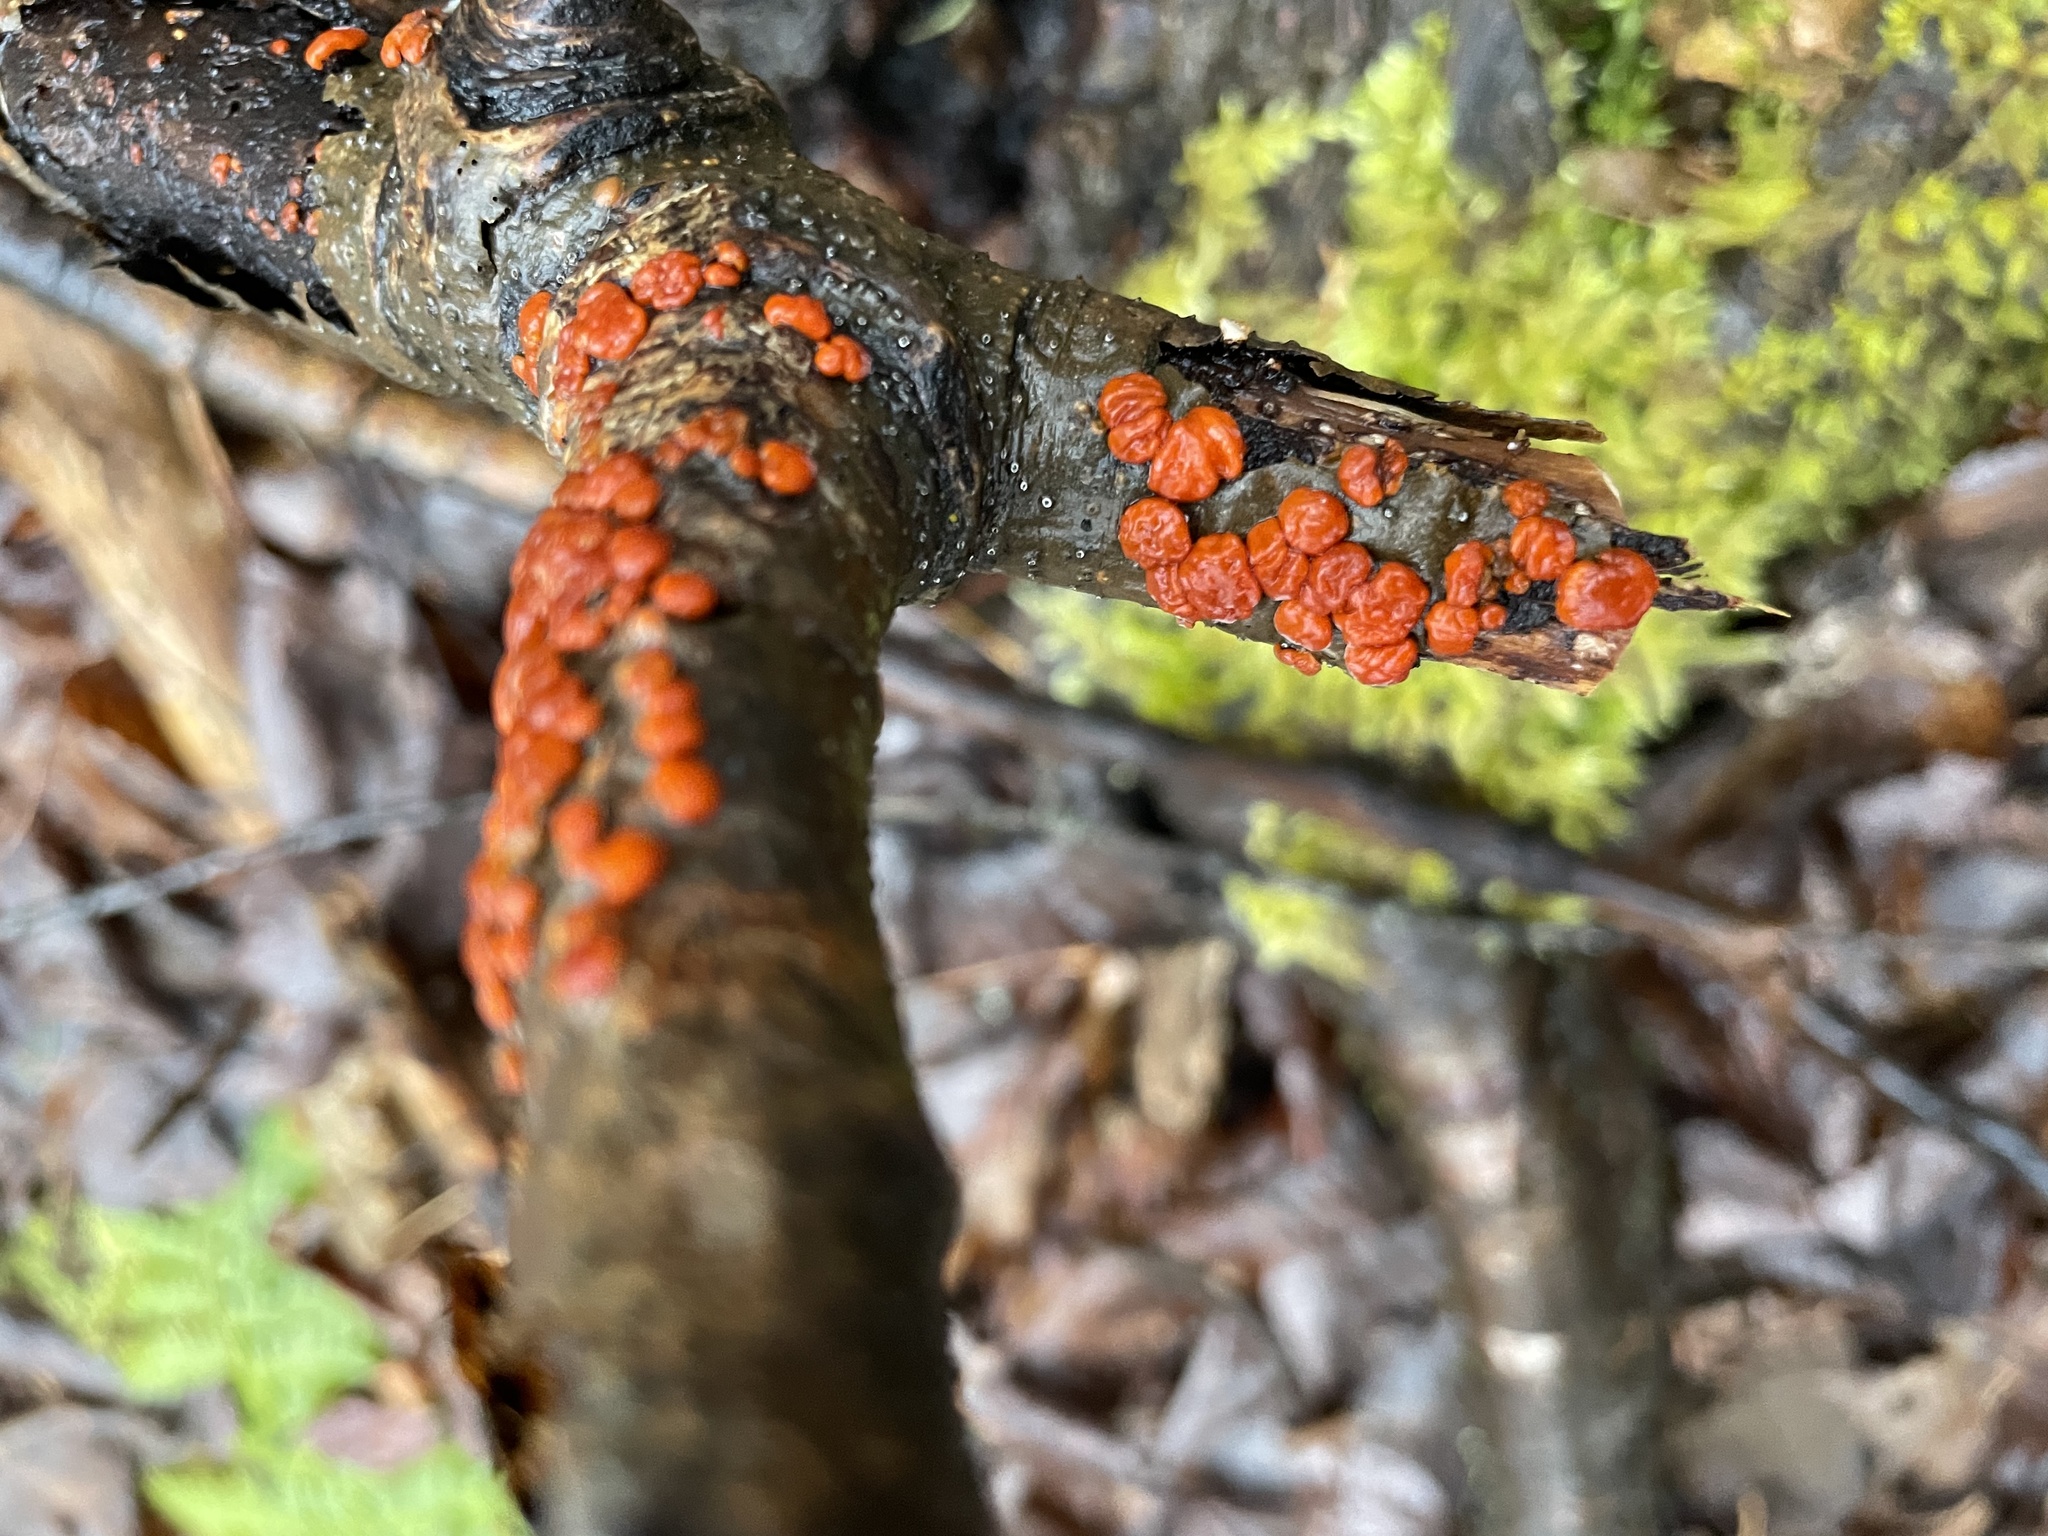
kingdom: Fungi
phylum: Basidiomycota
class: Agaricomycetes
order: Russulales
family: Peniophoraceae
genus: Peniophora
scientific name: Peniophora rufa
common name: Red tree brain fungus
